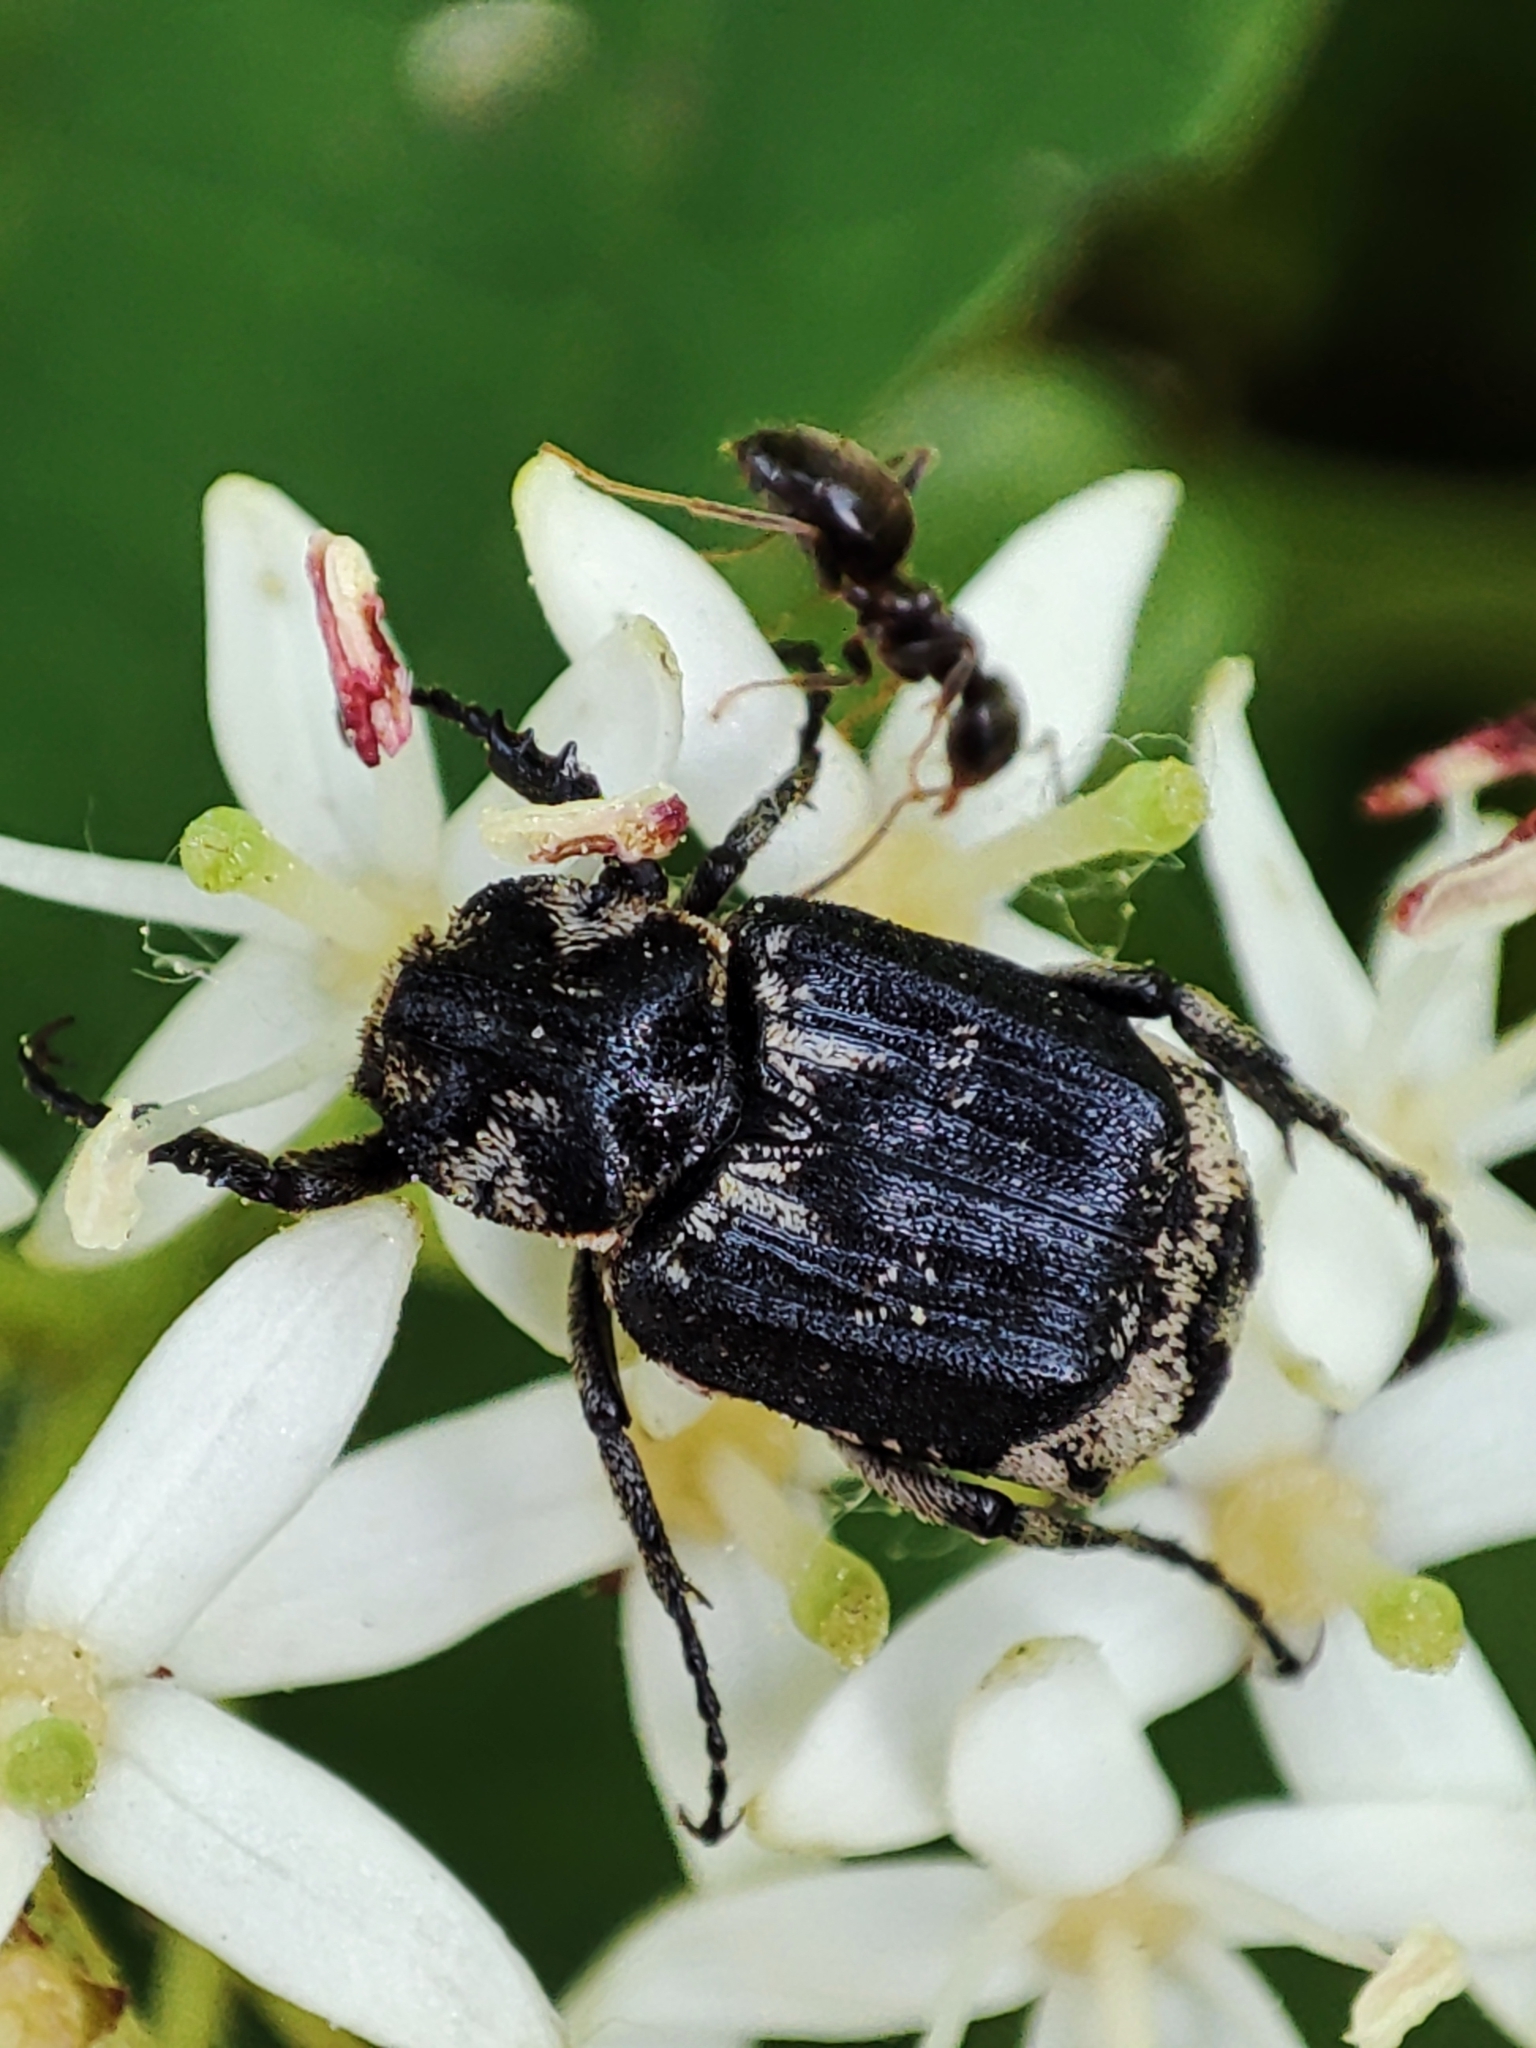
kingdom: Animalia
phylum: Arthropoda
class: Insecta
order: Coleoptera
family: Scarabaeidae
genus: Valgus
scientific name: Valgus hemipterus
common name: Bug flower chafer
